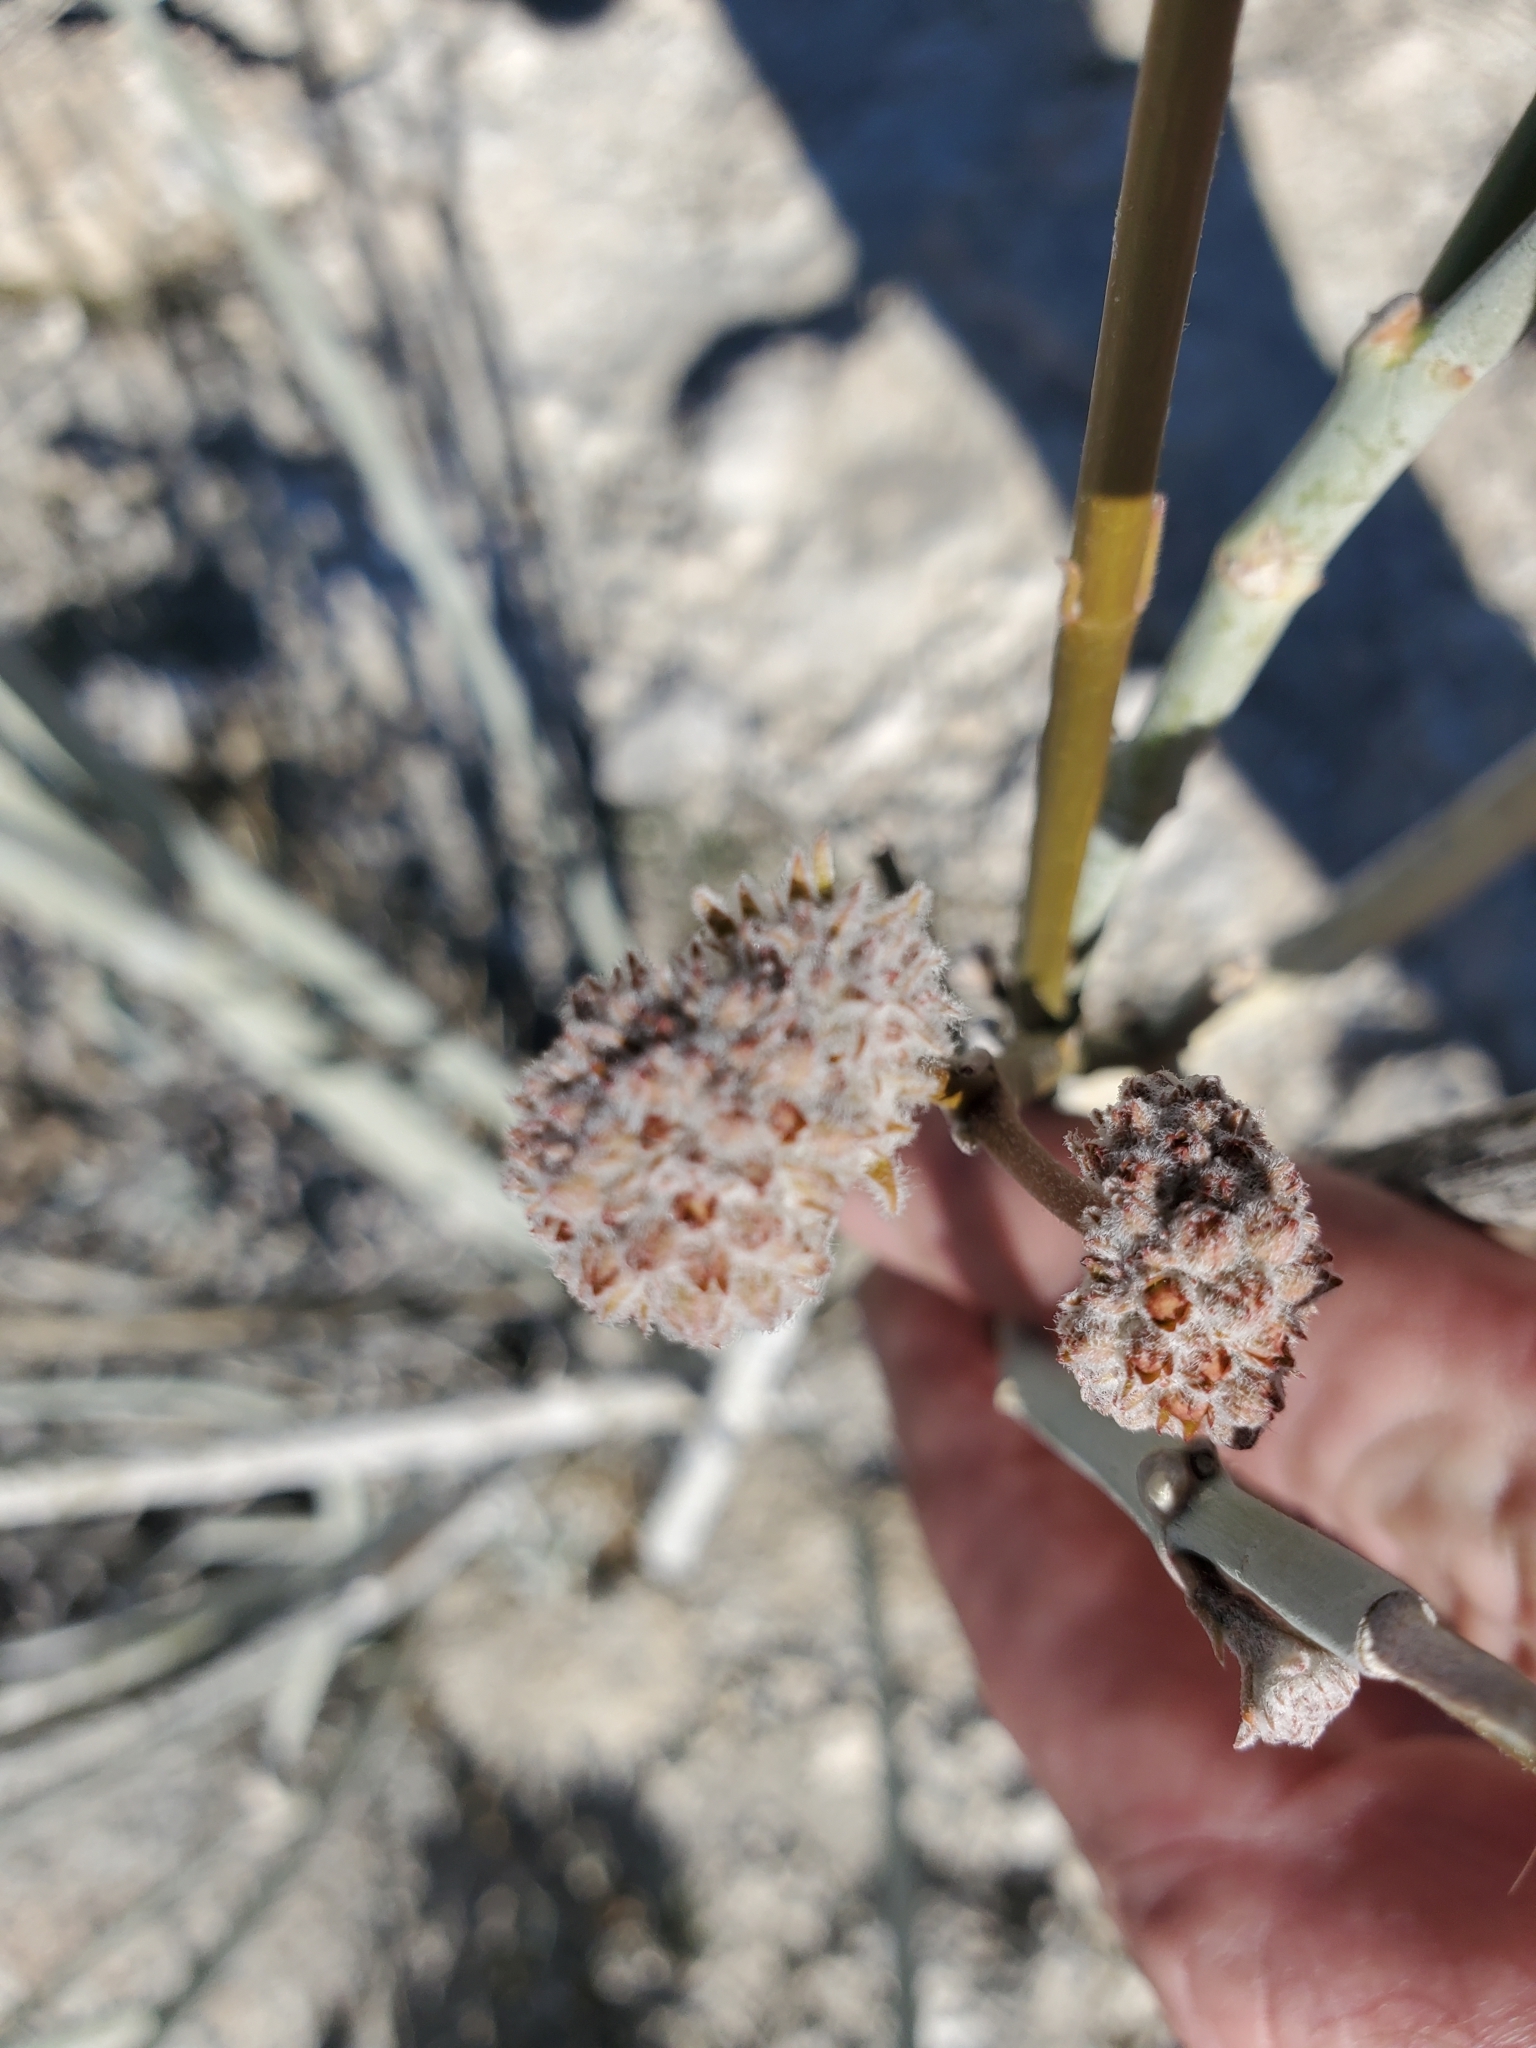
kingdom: Plantae
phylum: Tracheophyta
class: Magnoliopsida
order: Gentianales
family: Apocynaceae
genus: Asclepias
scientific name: Asclepias albicans
